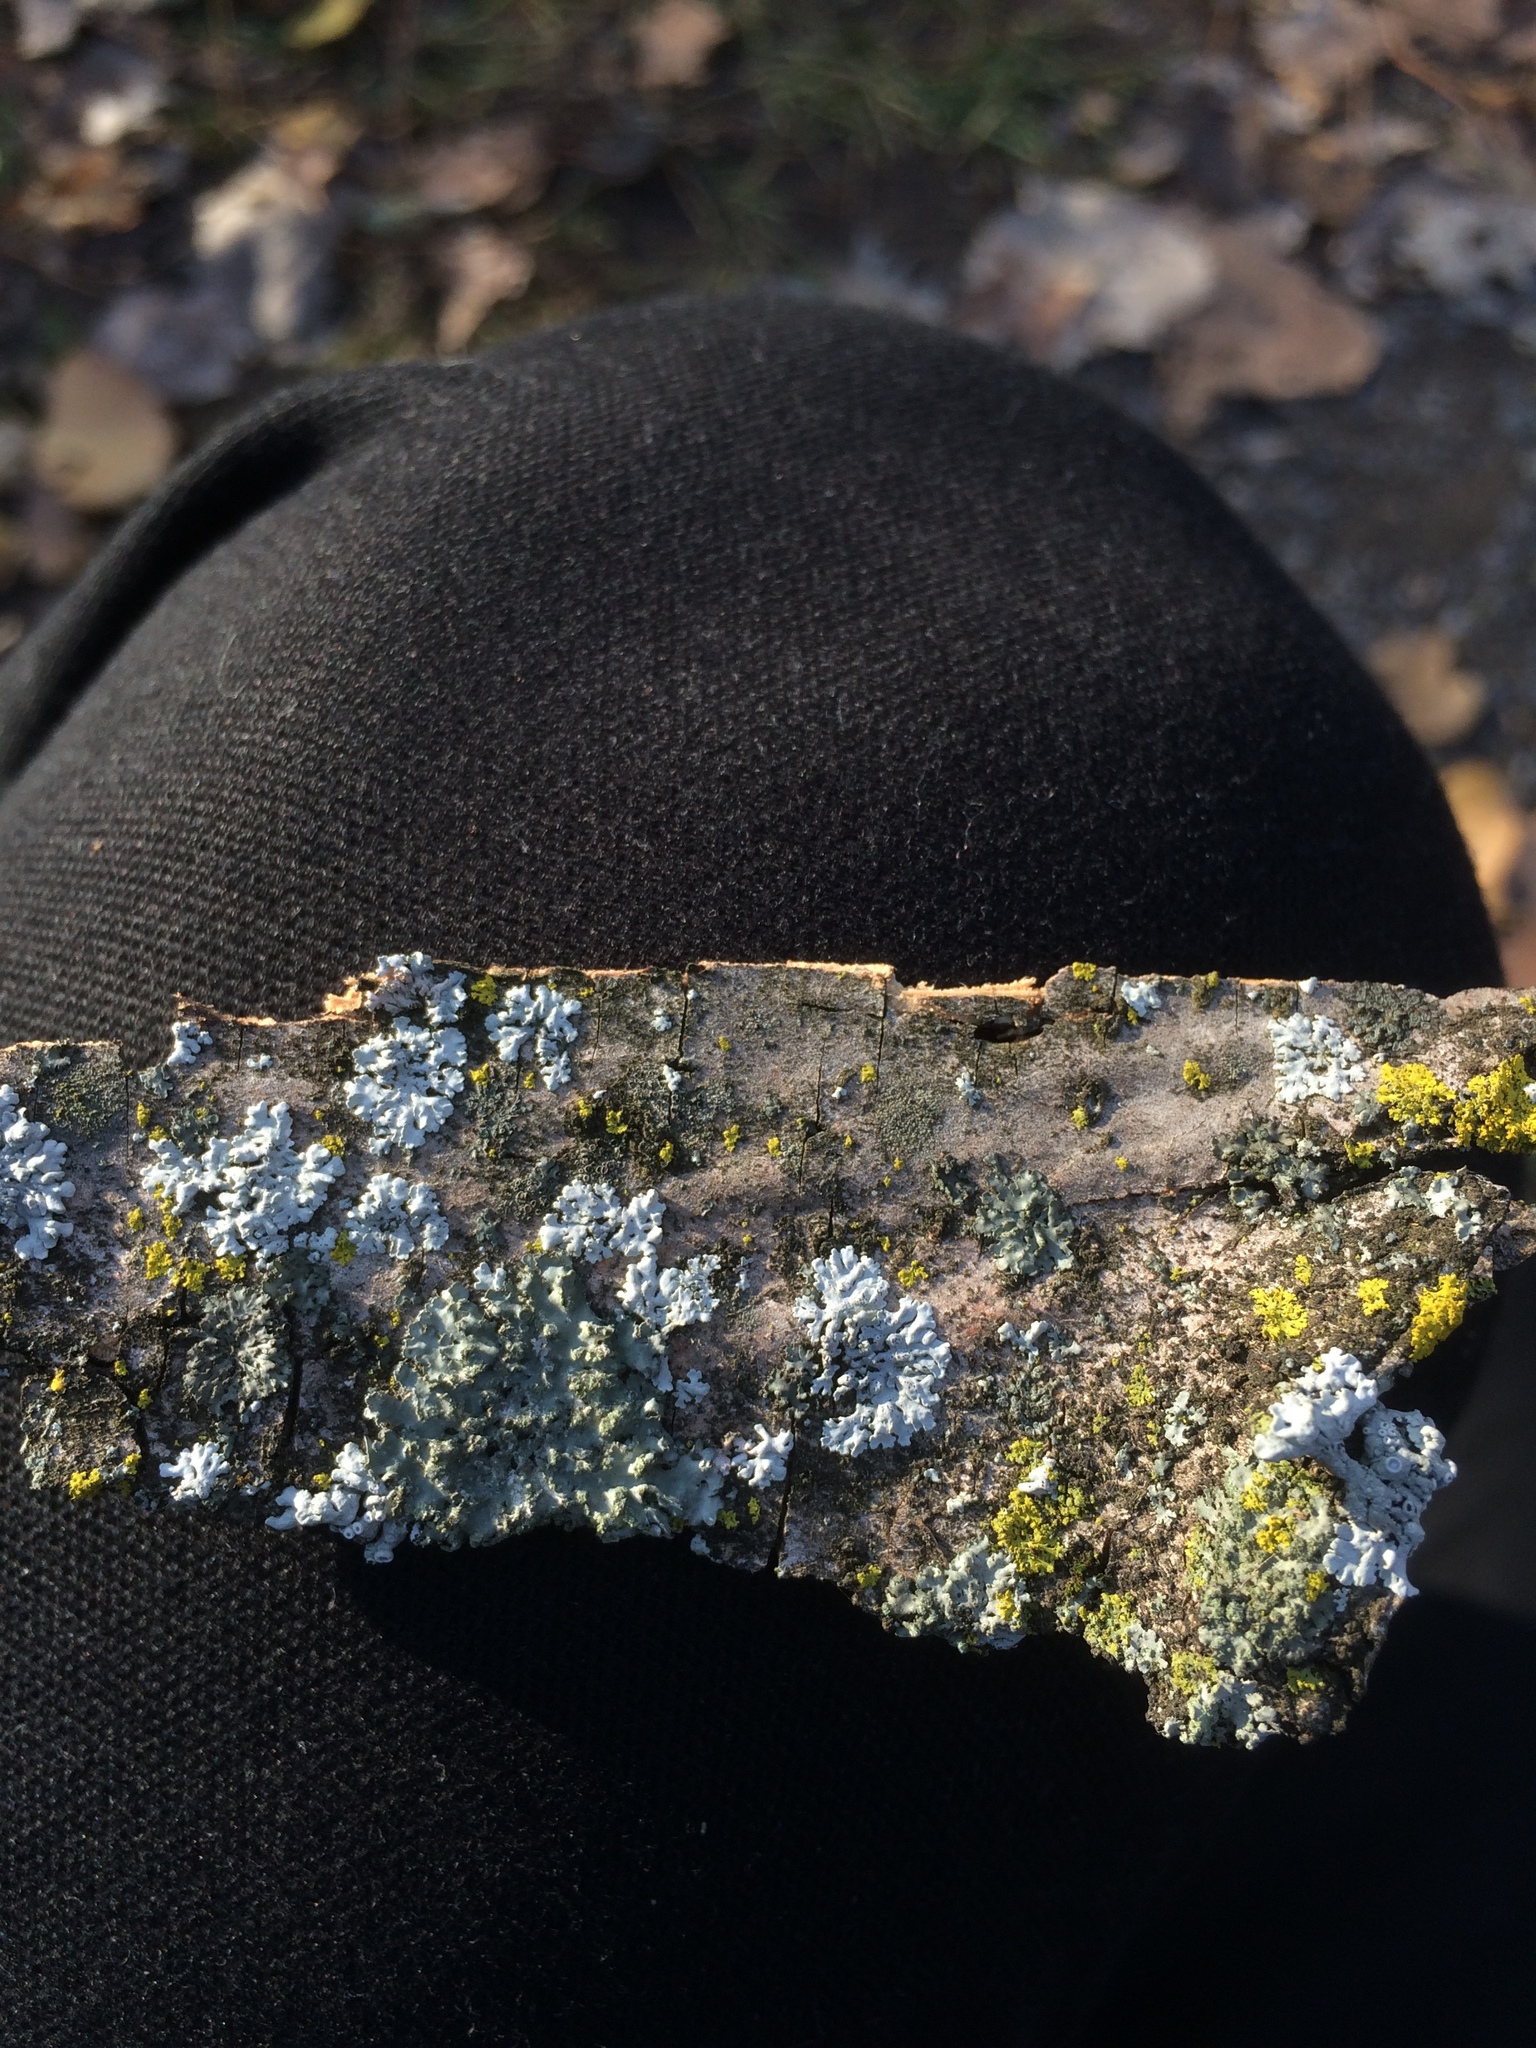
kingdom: Fungi
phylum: Ascomycota
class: Lecanoromycetes
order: Caliciales
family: Physciaceae
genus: Physciella
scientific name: Physciella chloantha
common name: Cryptic rosette lichen
